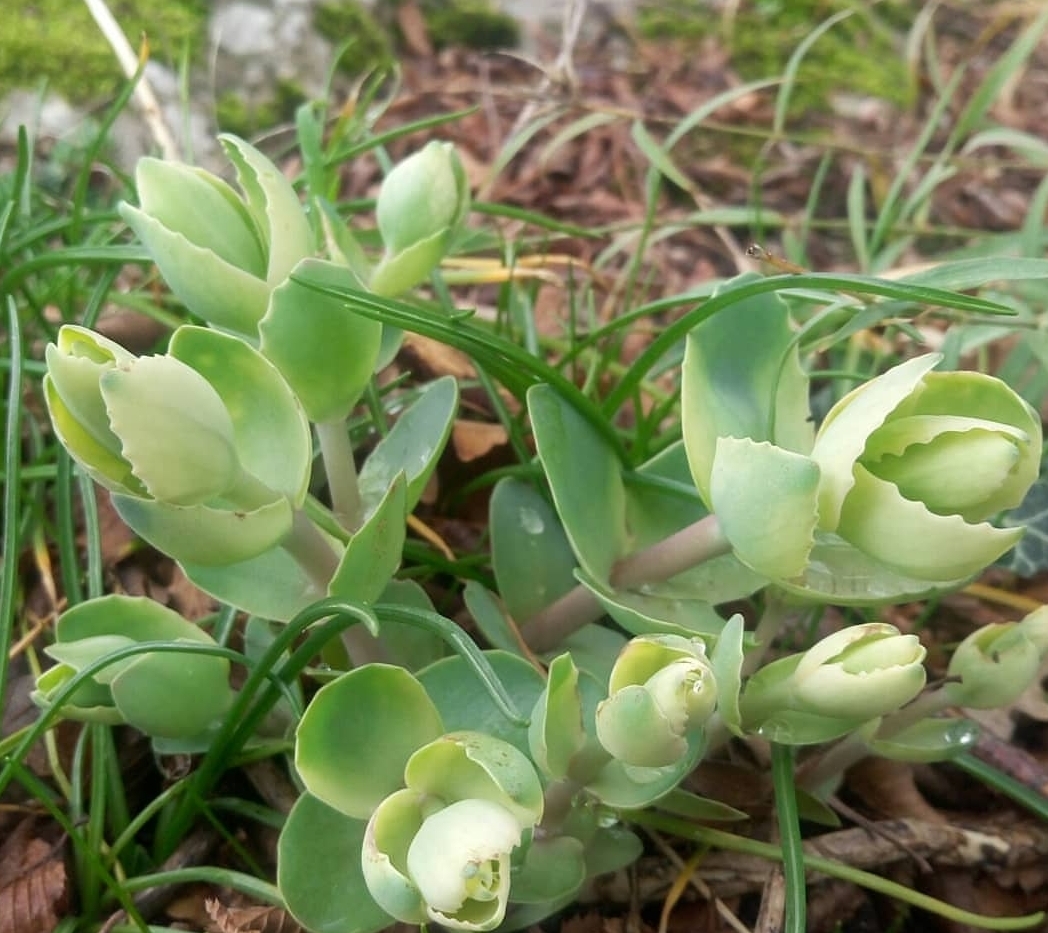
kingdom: Plantae
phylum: Tracheophyta
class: Magnoliopsida
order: Saxifragales
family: Crassulaceae
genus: Hylotelephium
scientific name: Hylotelephium maximum
